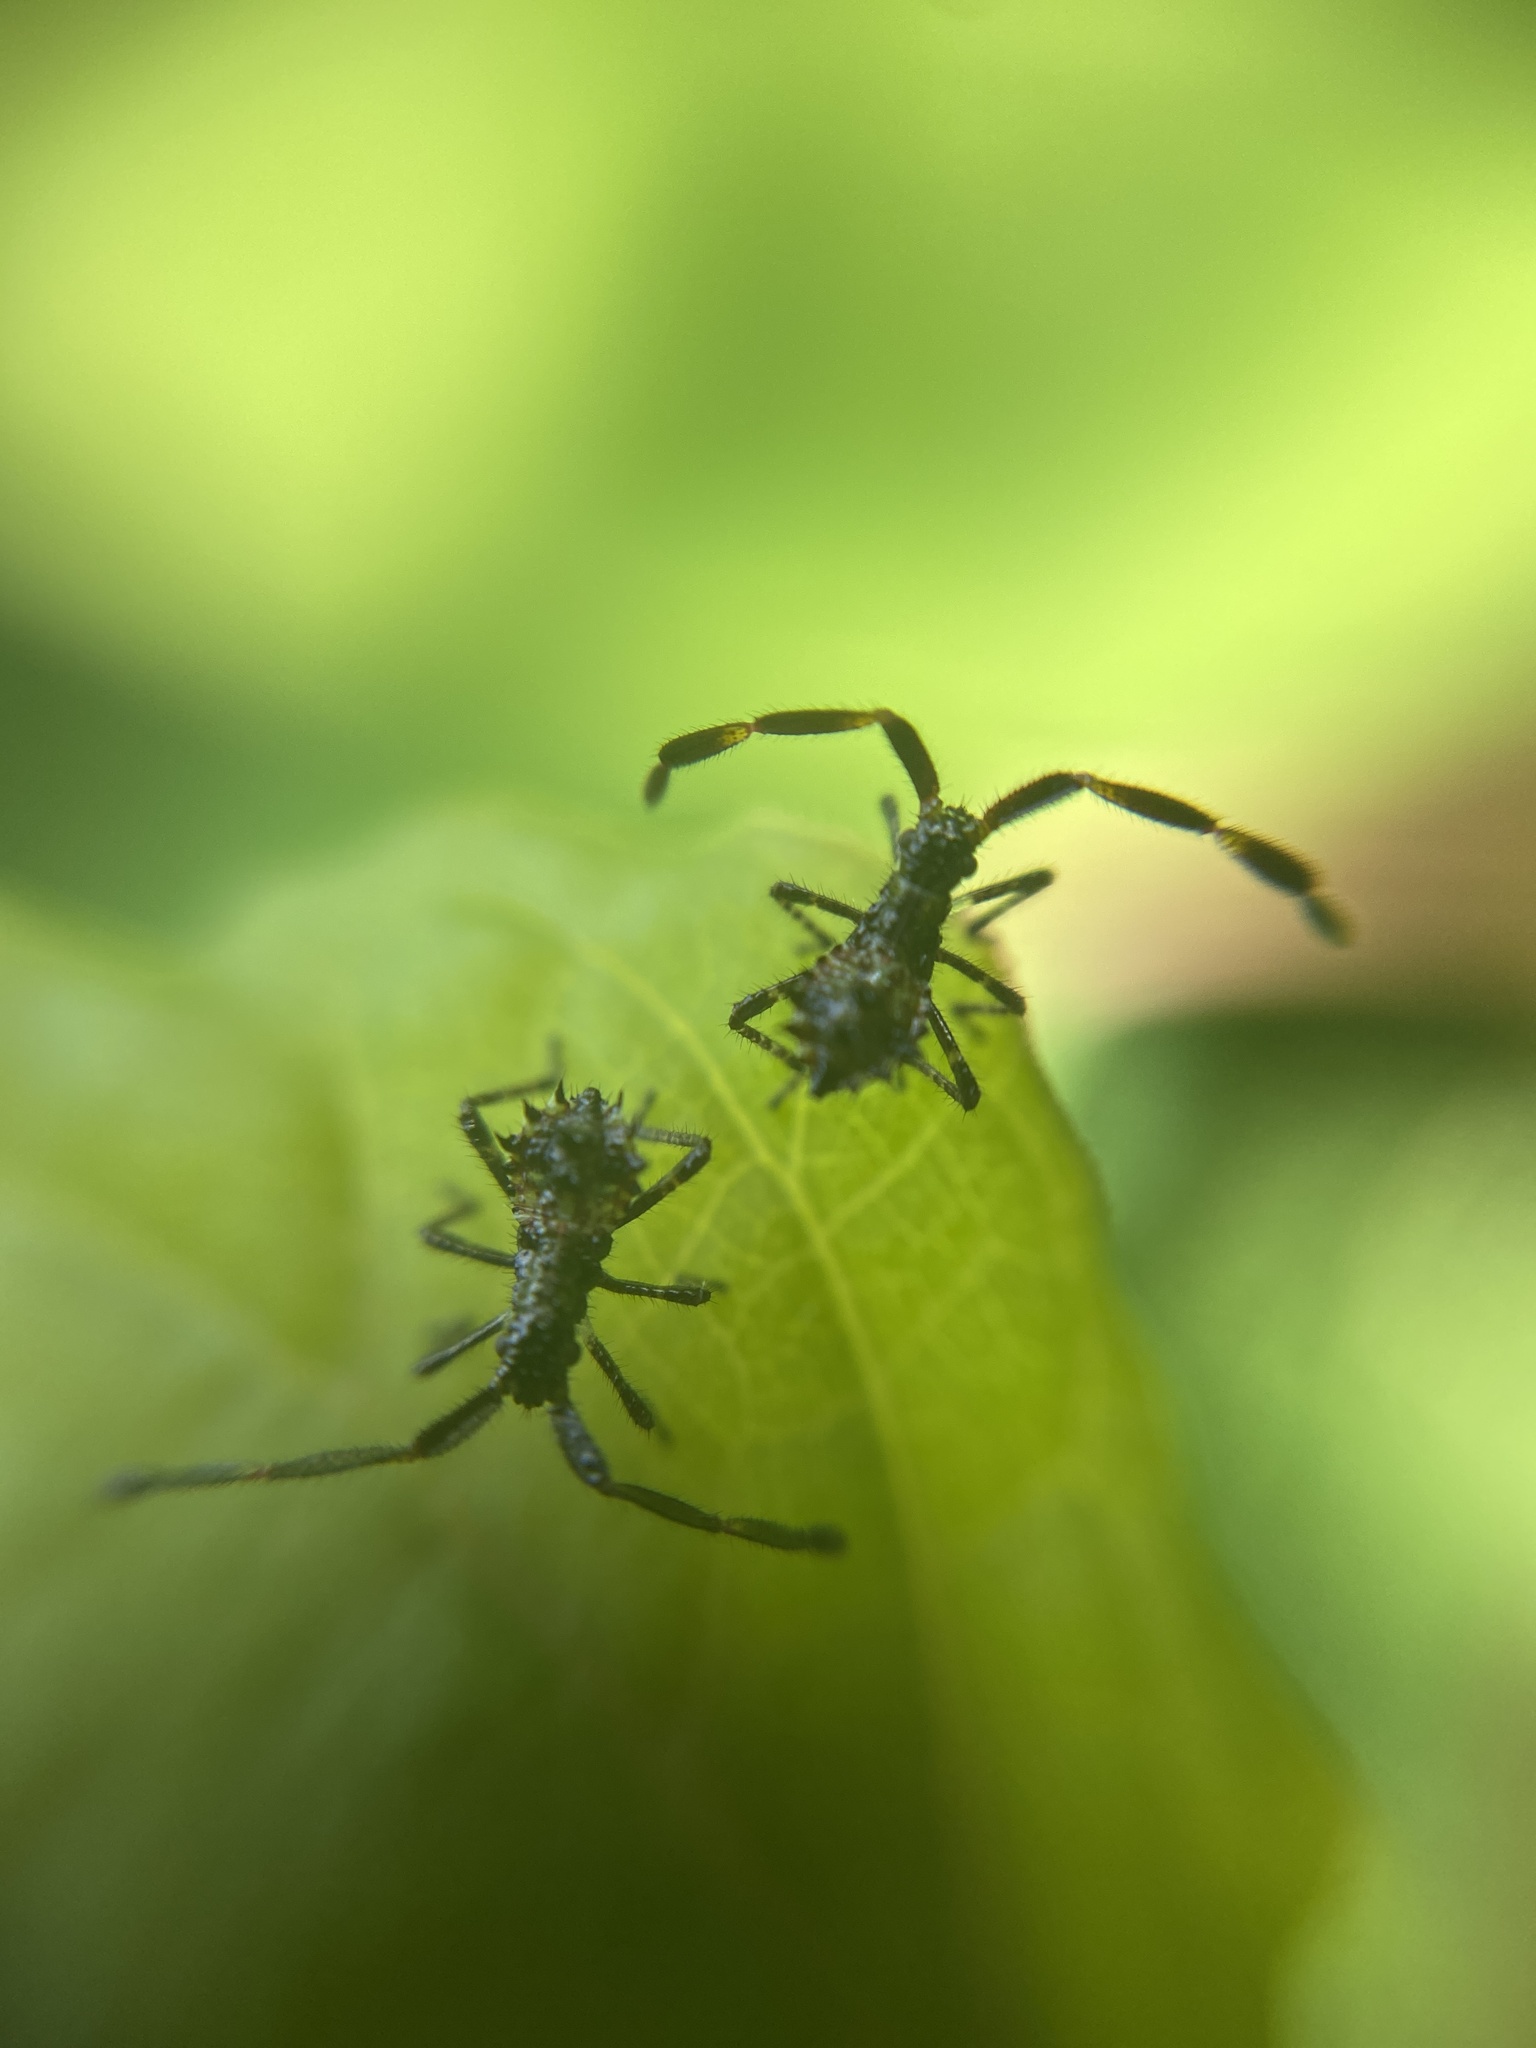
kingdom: Animalia
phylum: Arthropoda
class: Insecta
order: Hemiptera
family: Coreidae
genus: Coreus
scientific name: Coreus marginatus
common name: Dock bug
